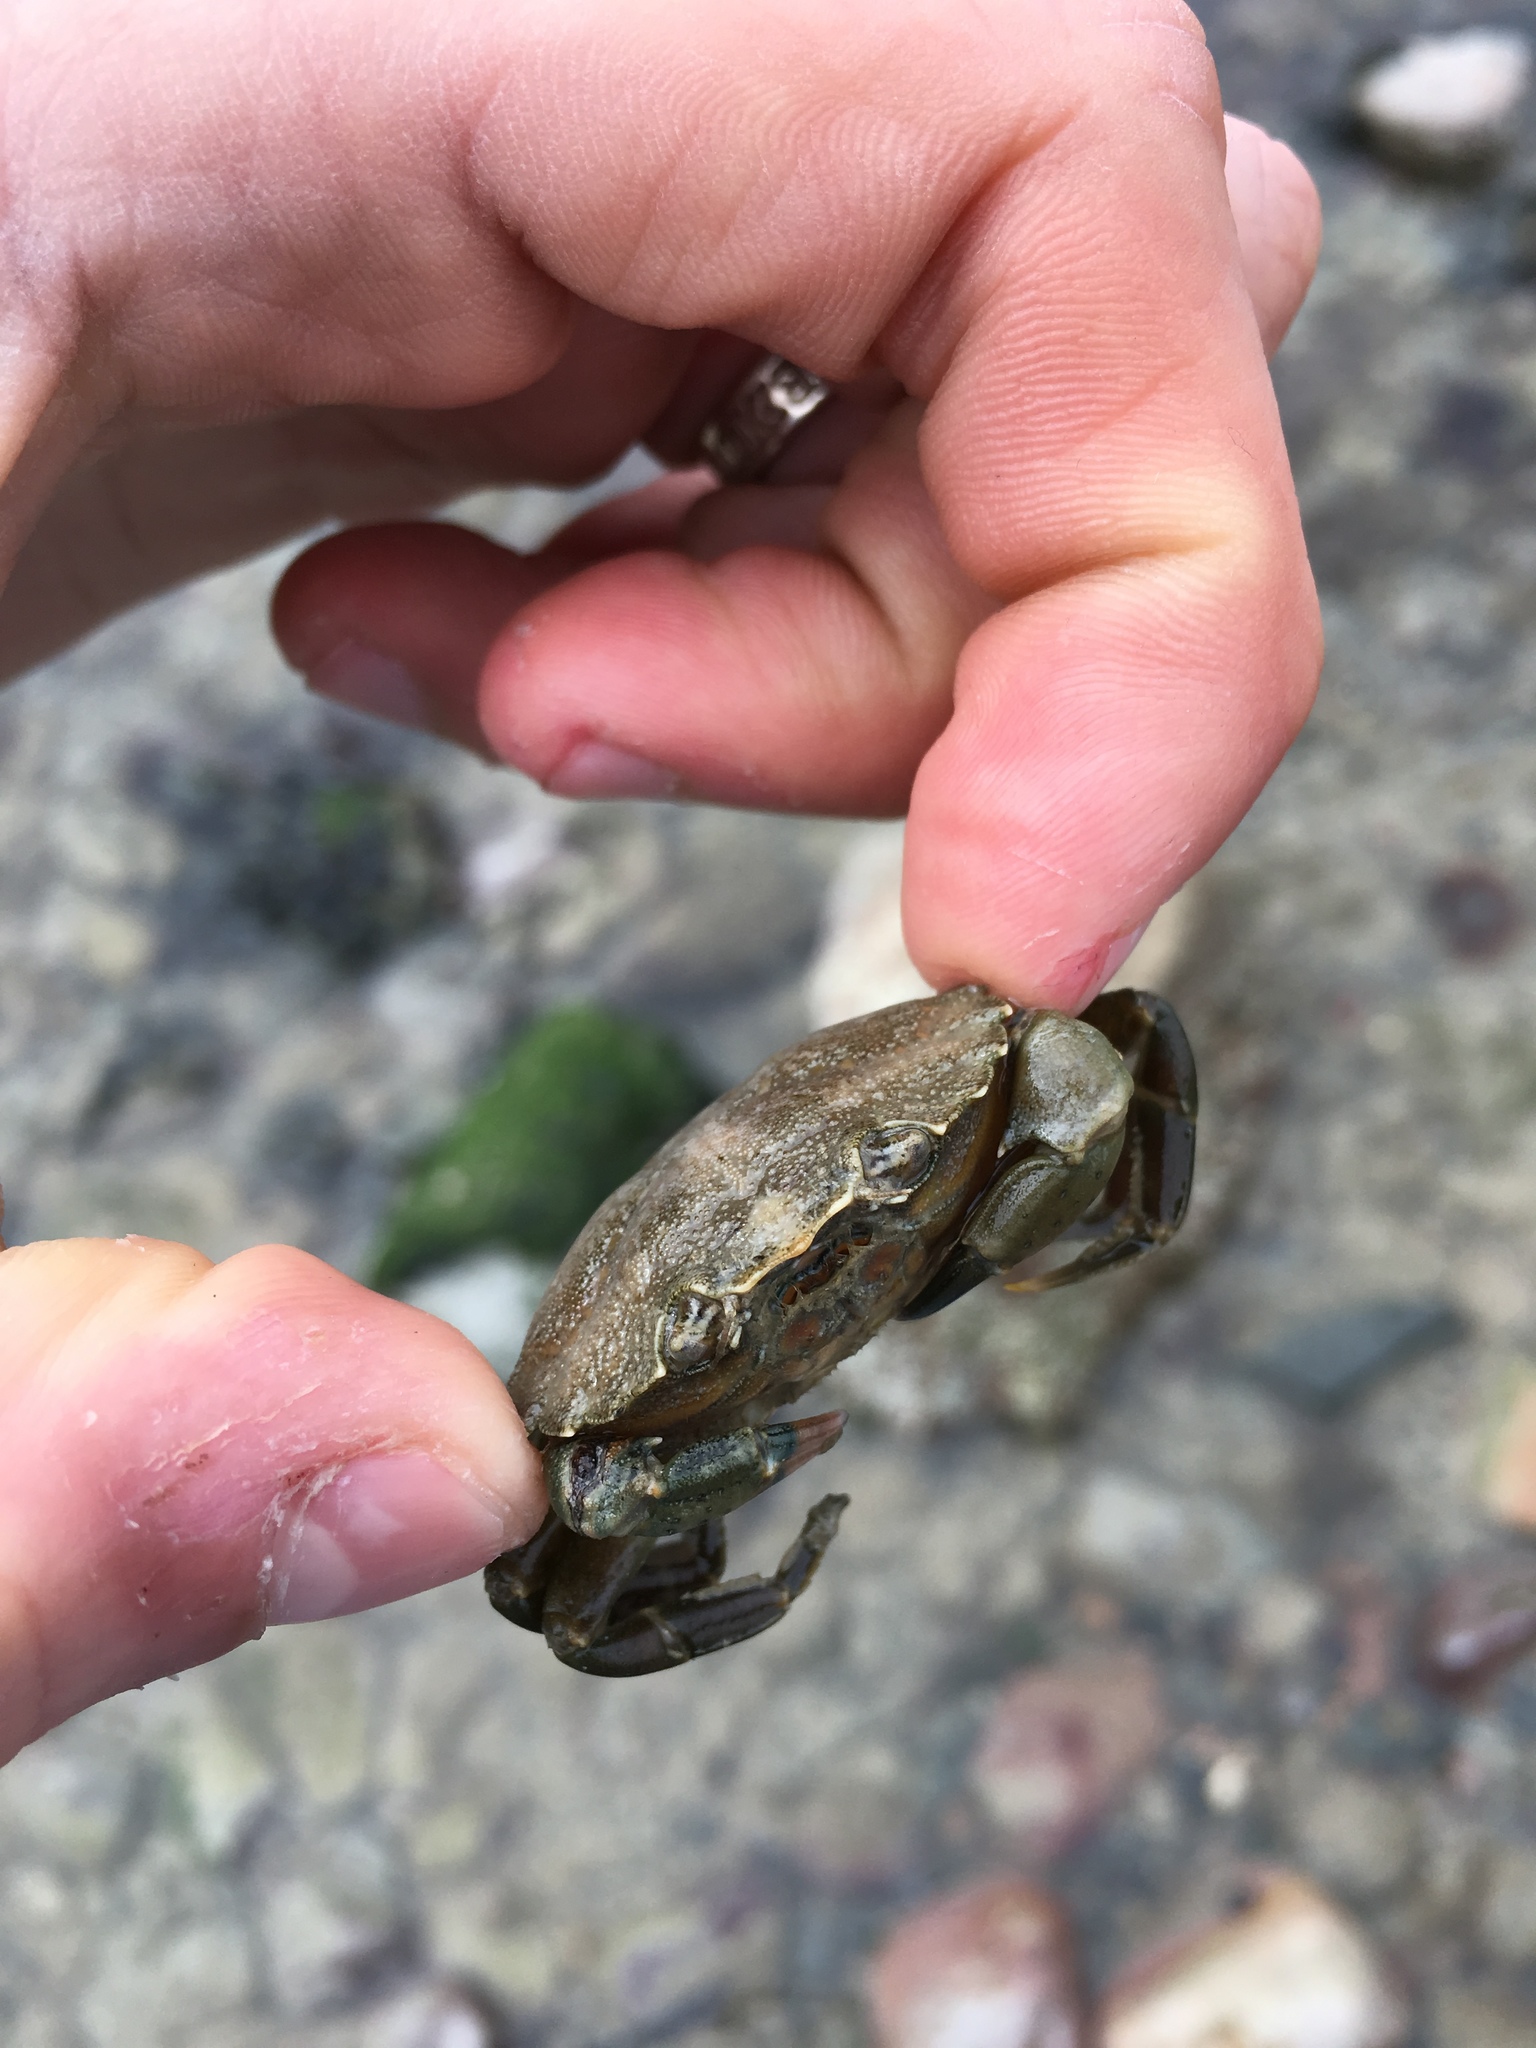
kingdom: Animalia
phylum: Arthropoda
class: Malacostraca
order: Decapoda
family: Carcinidae
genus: Carcinus
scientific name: Carcinus maenas
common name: European green crab
